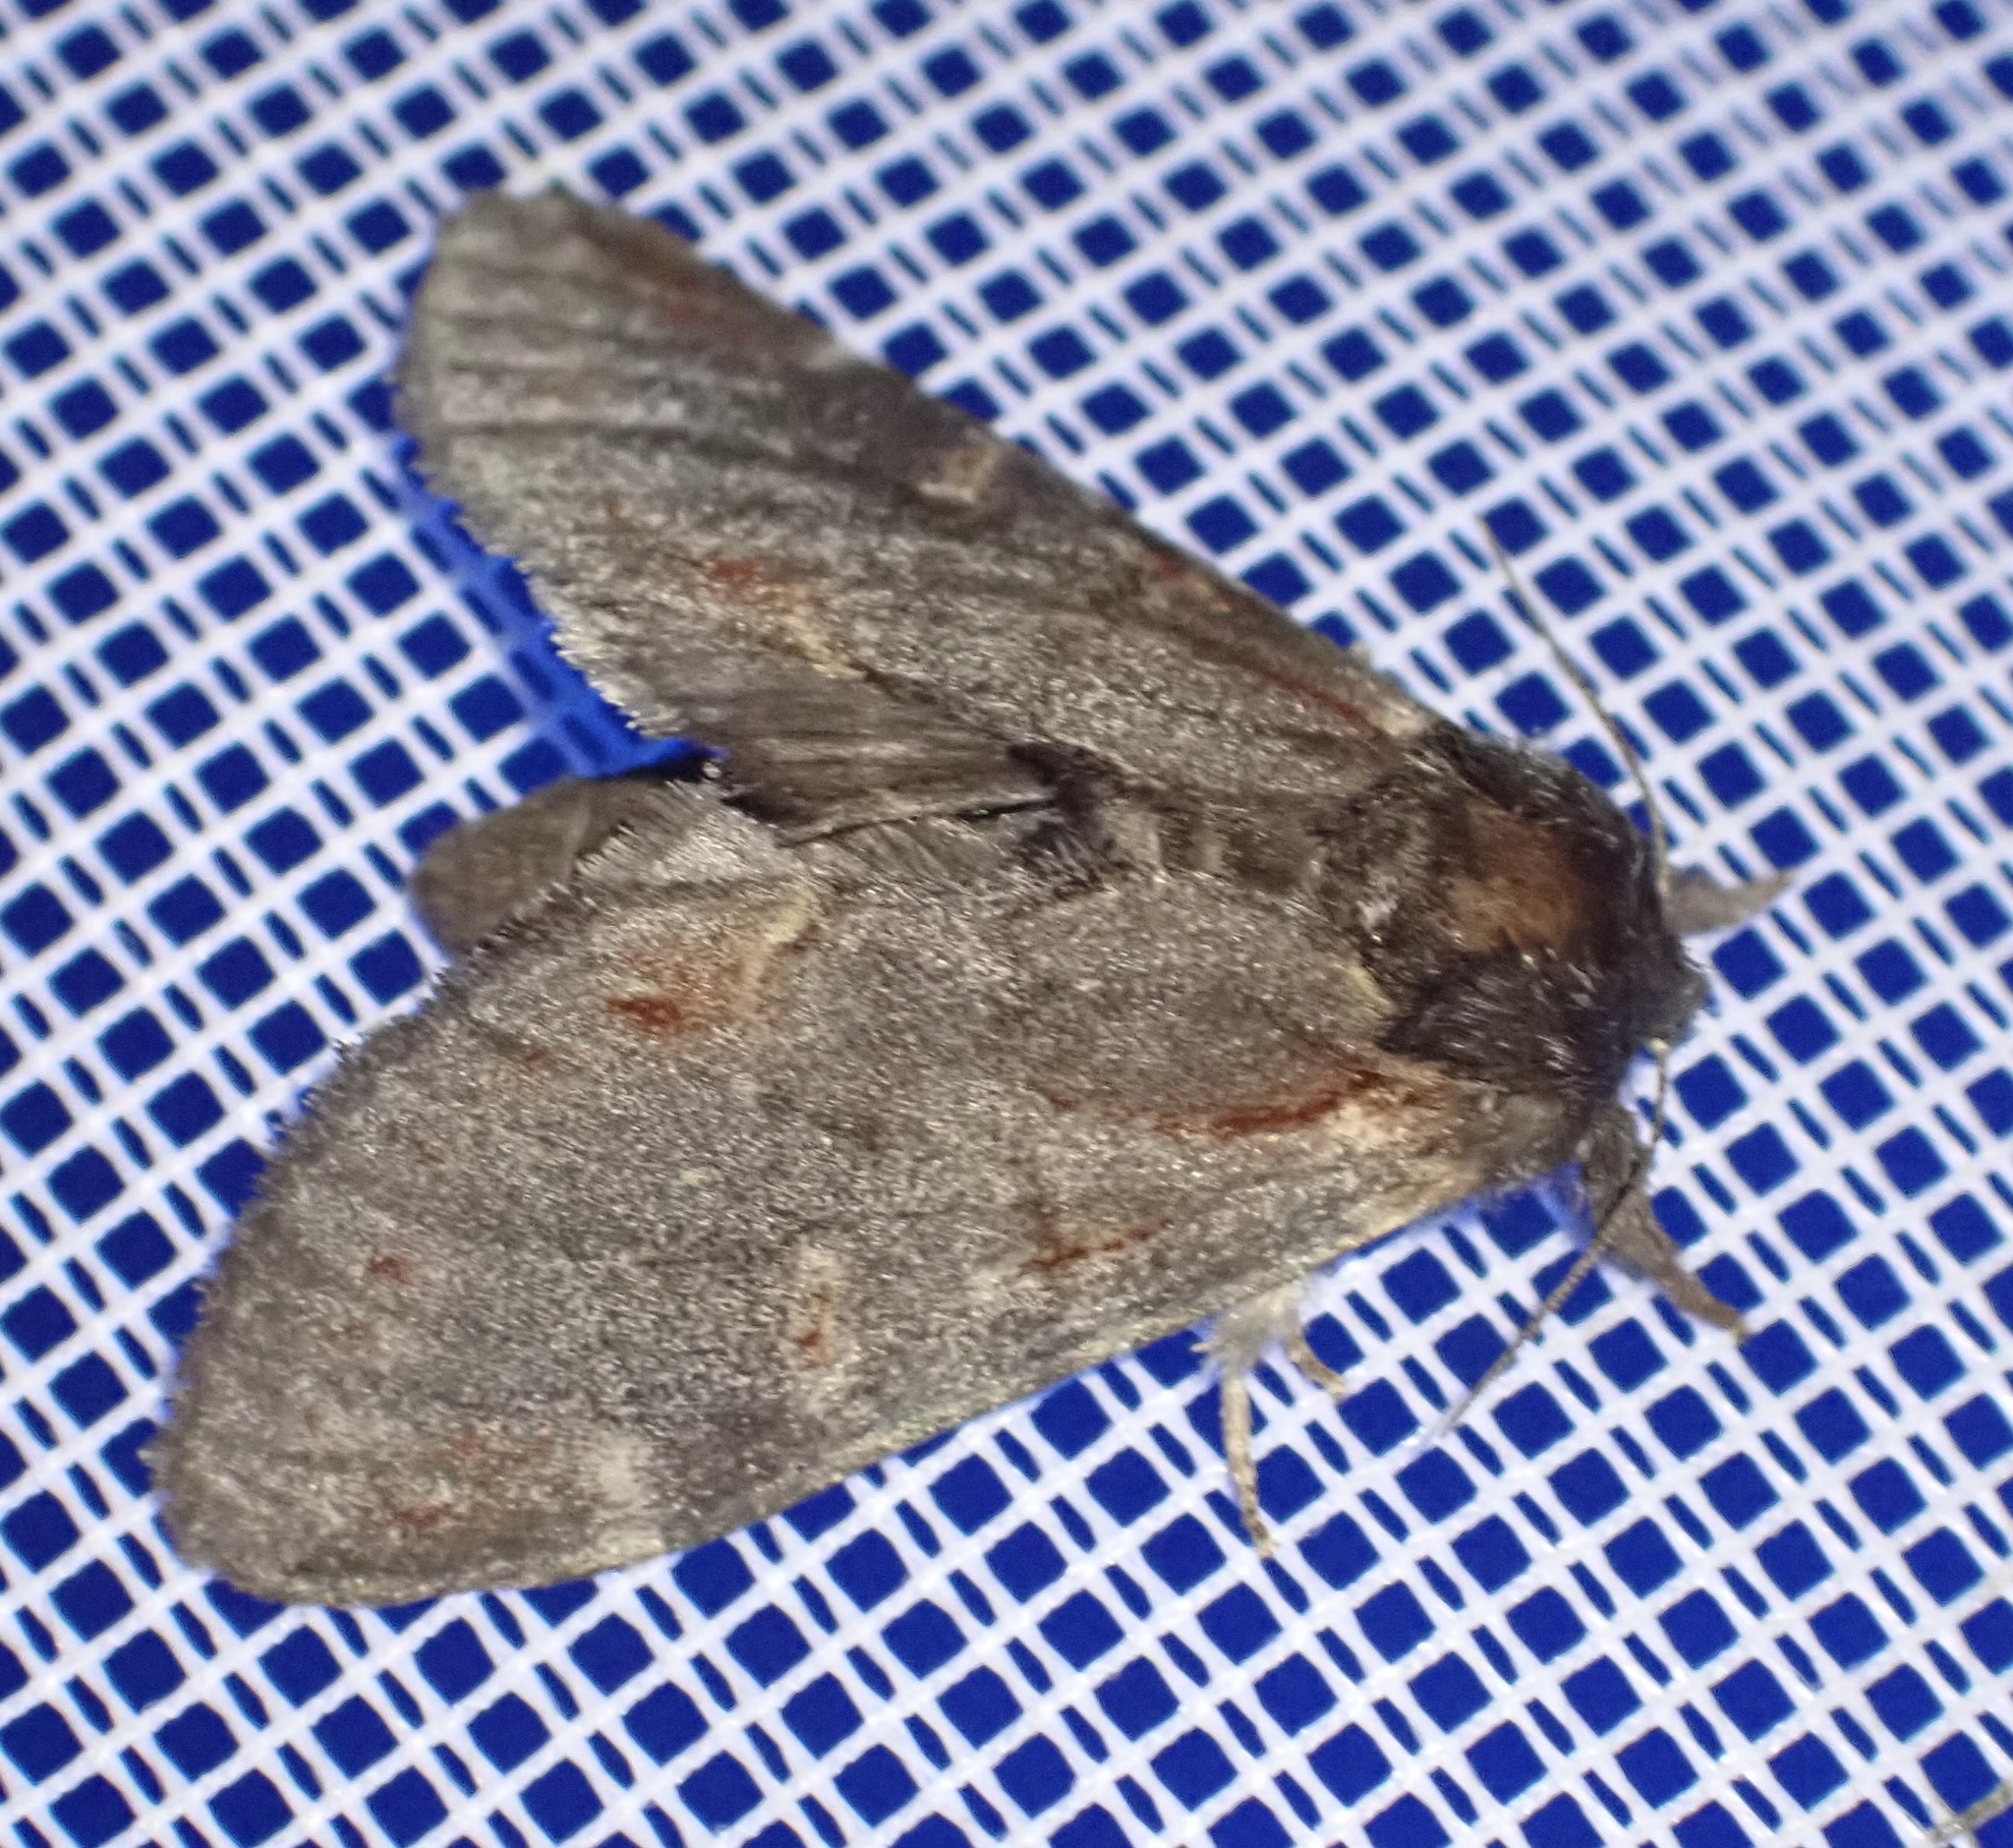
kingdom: Animalia
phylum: Arthropoda
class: Insecta
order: Lepidoptera
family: Notodontidae
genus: Notodonta
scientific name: Notodonta dromedarius
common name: Iron prominent
